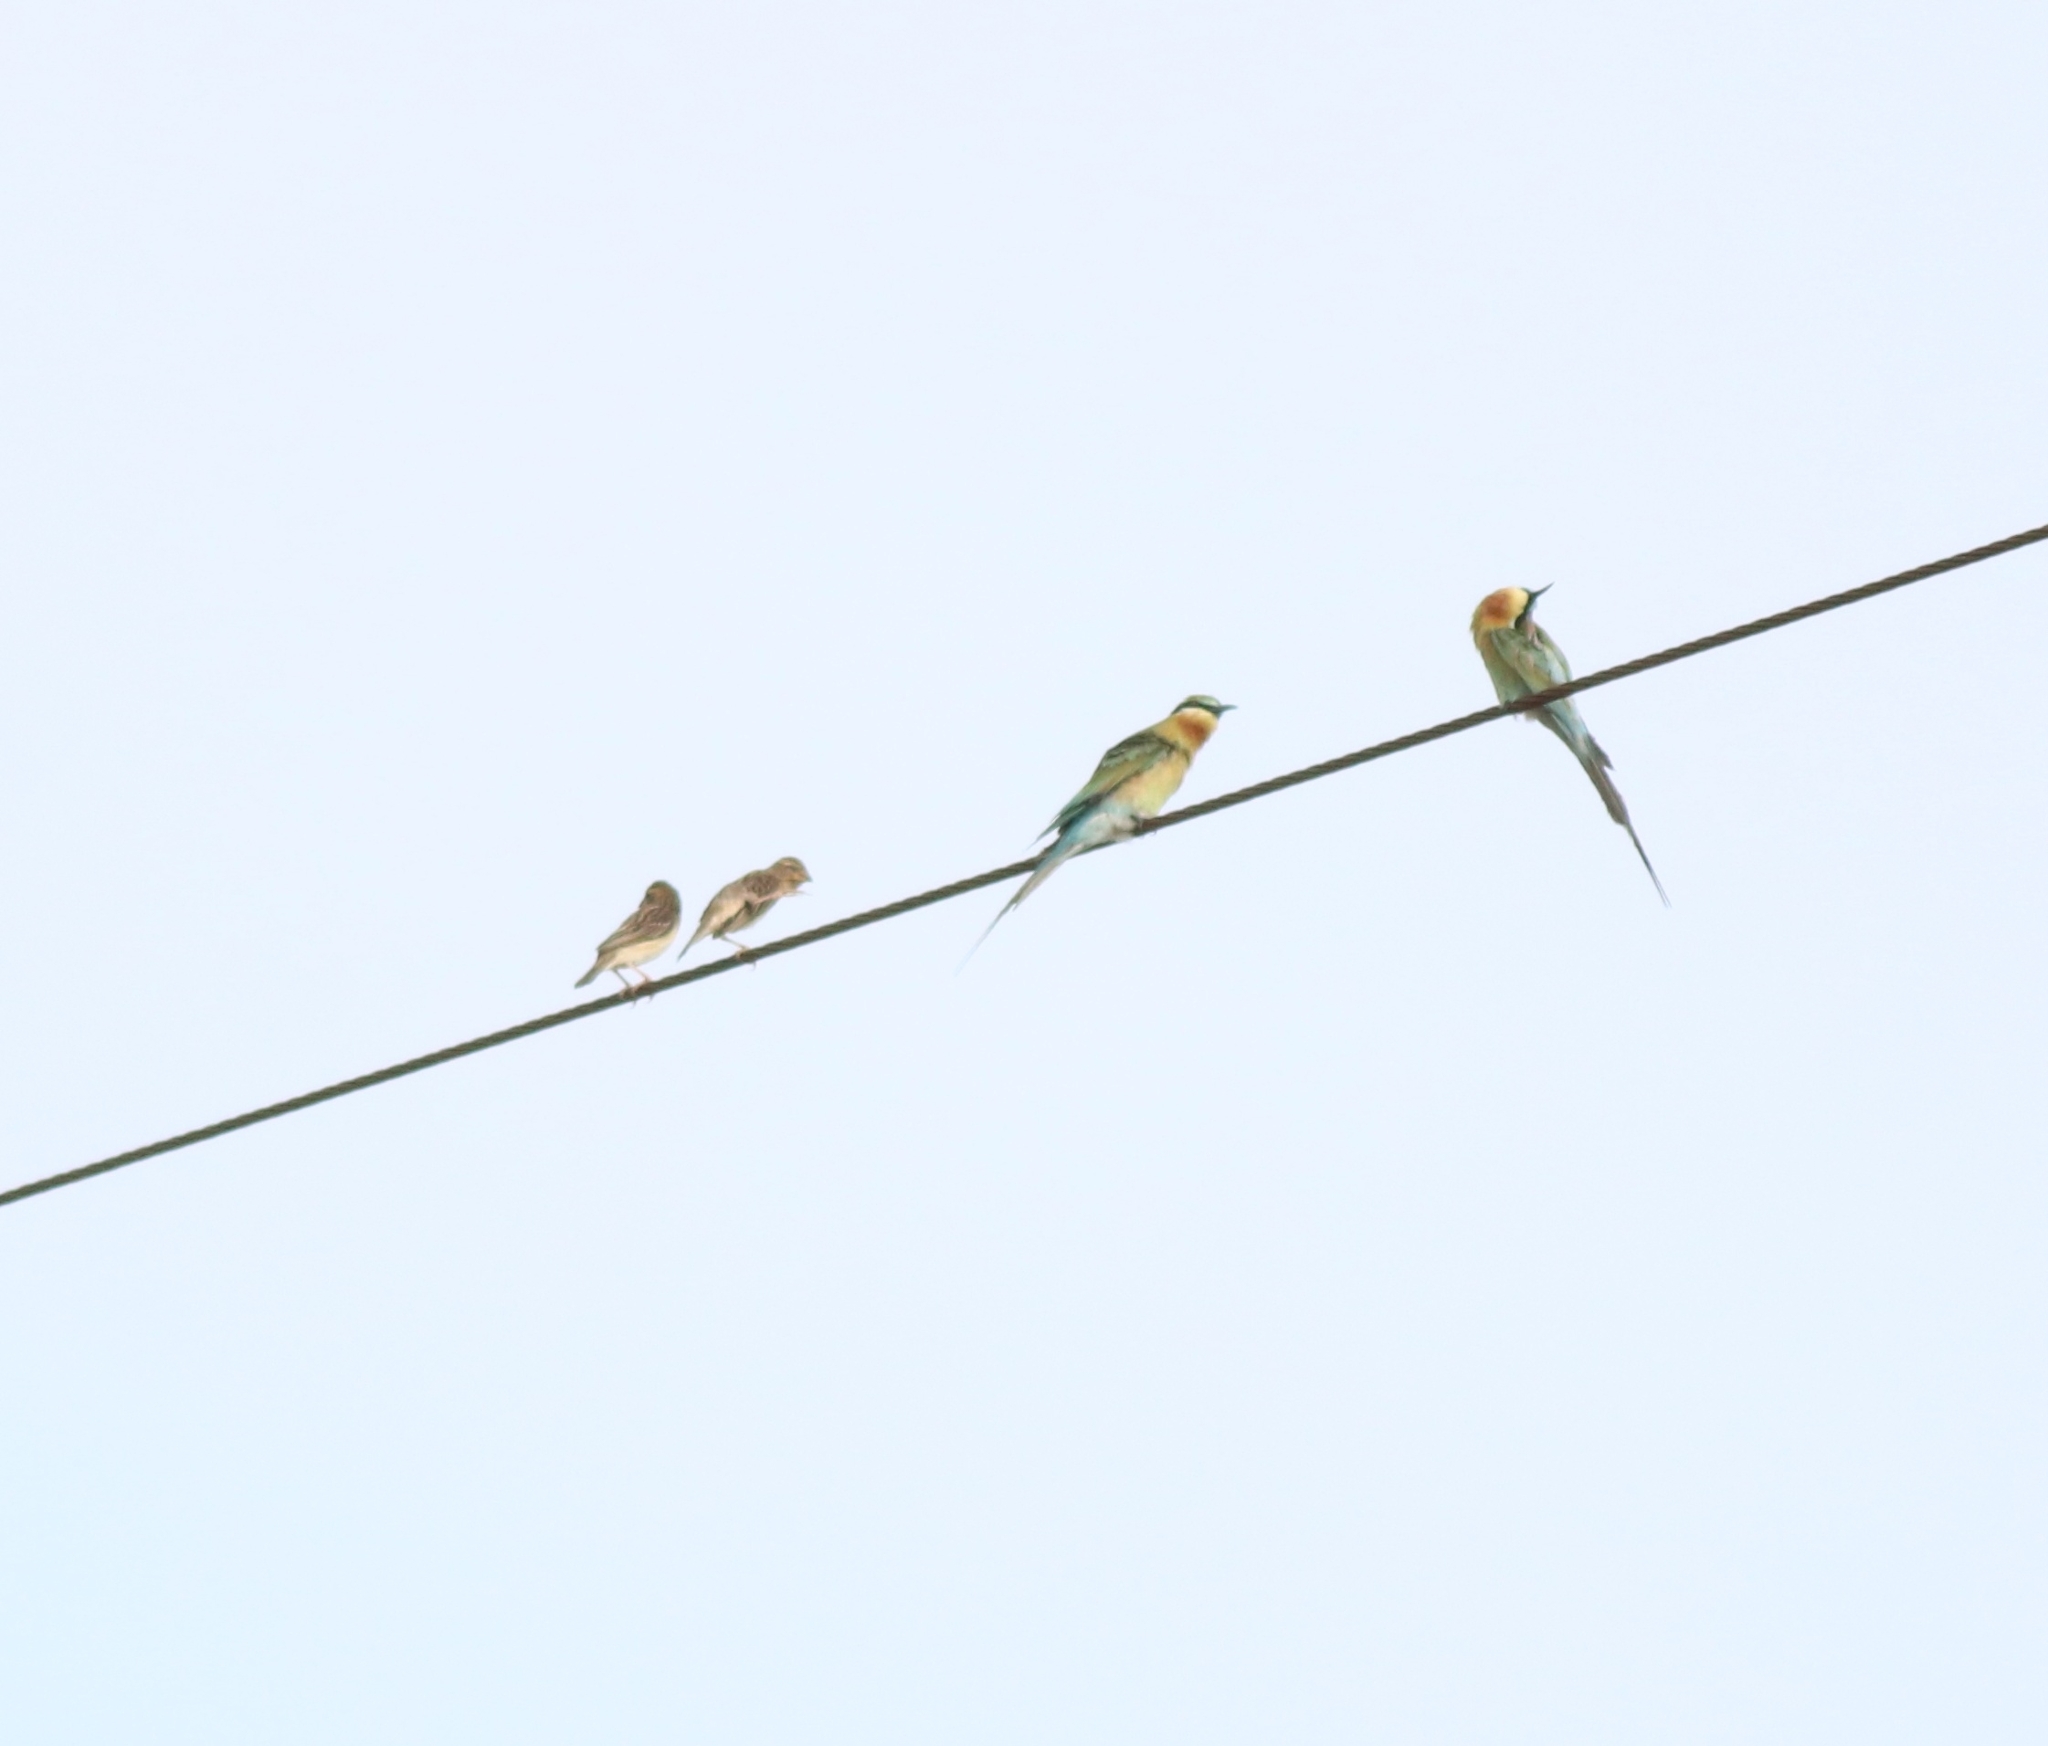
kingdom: Animalia
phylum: Chordata
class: Aves
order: Coraciiformes
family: Meropidae
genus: Merops
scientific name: Merops philippinus
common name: Blue-tailed bee-eater
